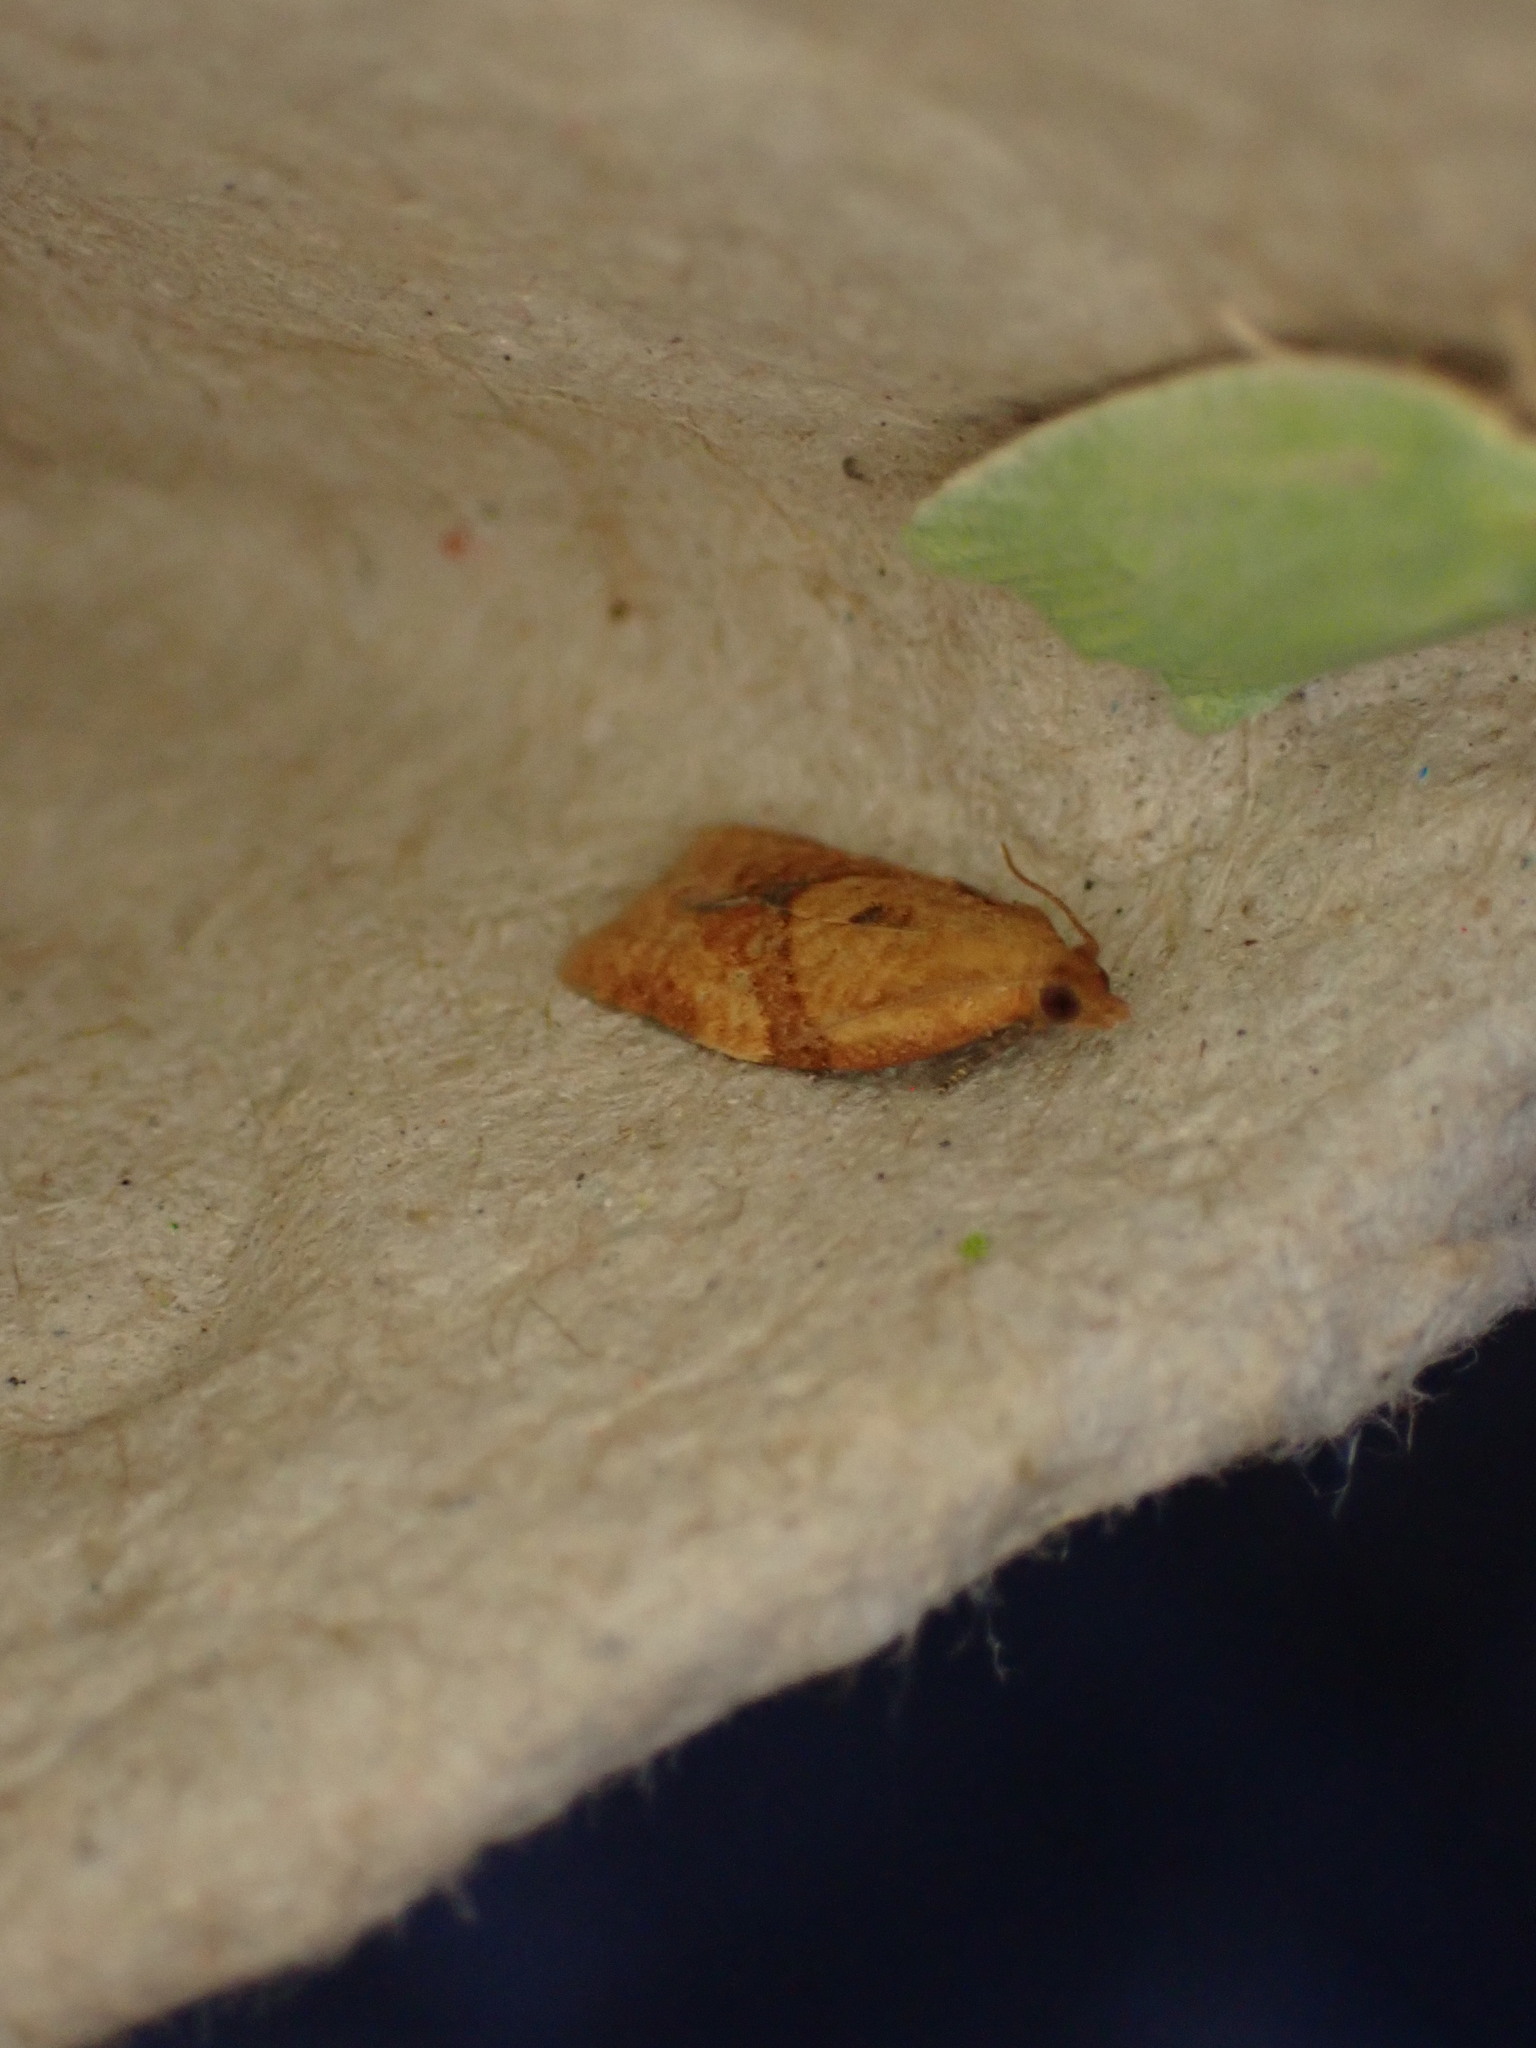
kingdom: Animalia
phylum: Arthropoda
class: Insecta
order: Lepidoptera
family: Tortricidae
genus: Clepsis
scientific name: Clepsis consimilana
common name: Privet tortrix
